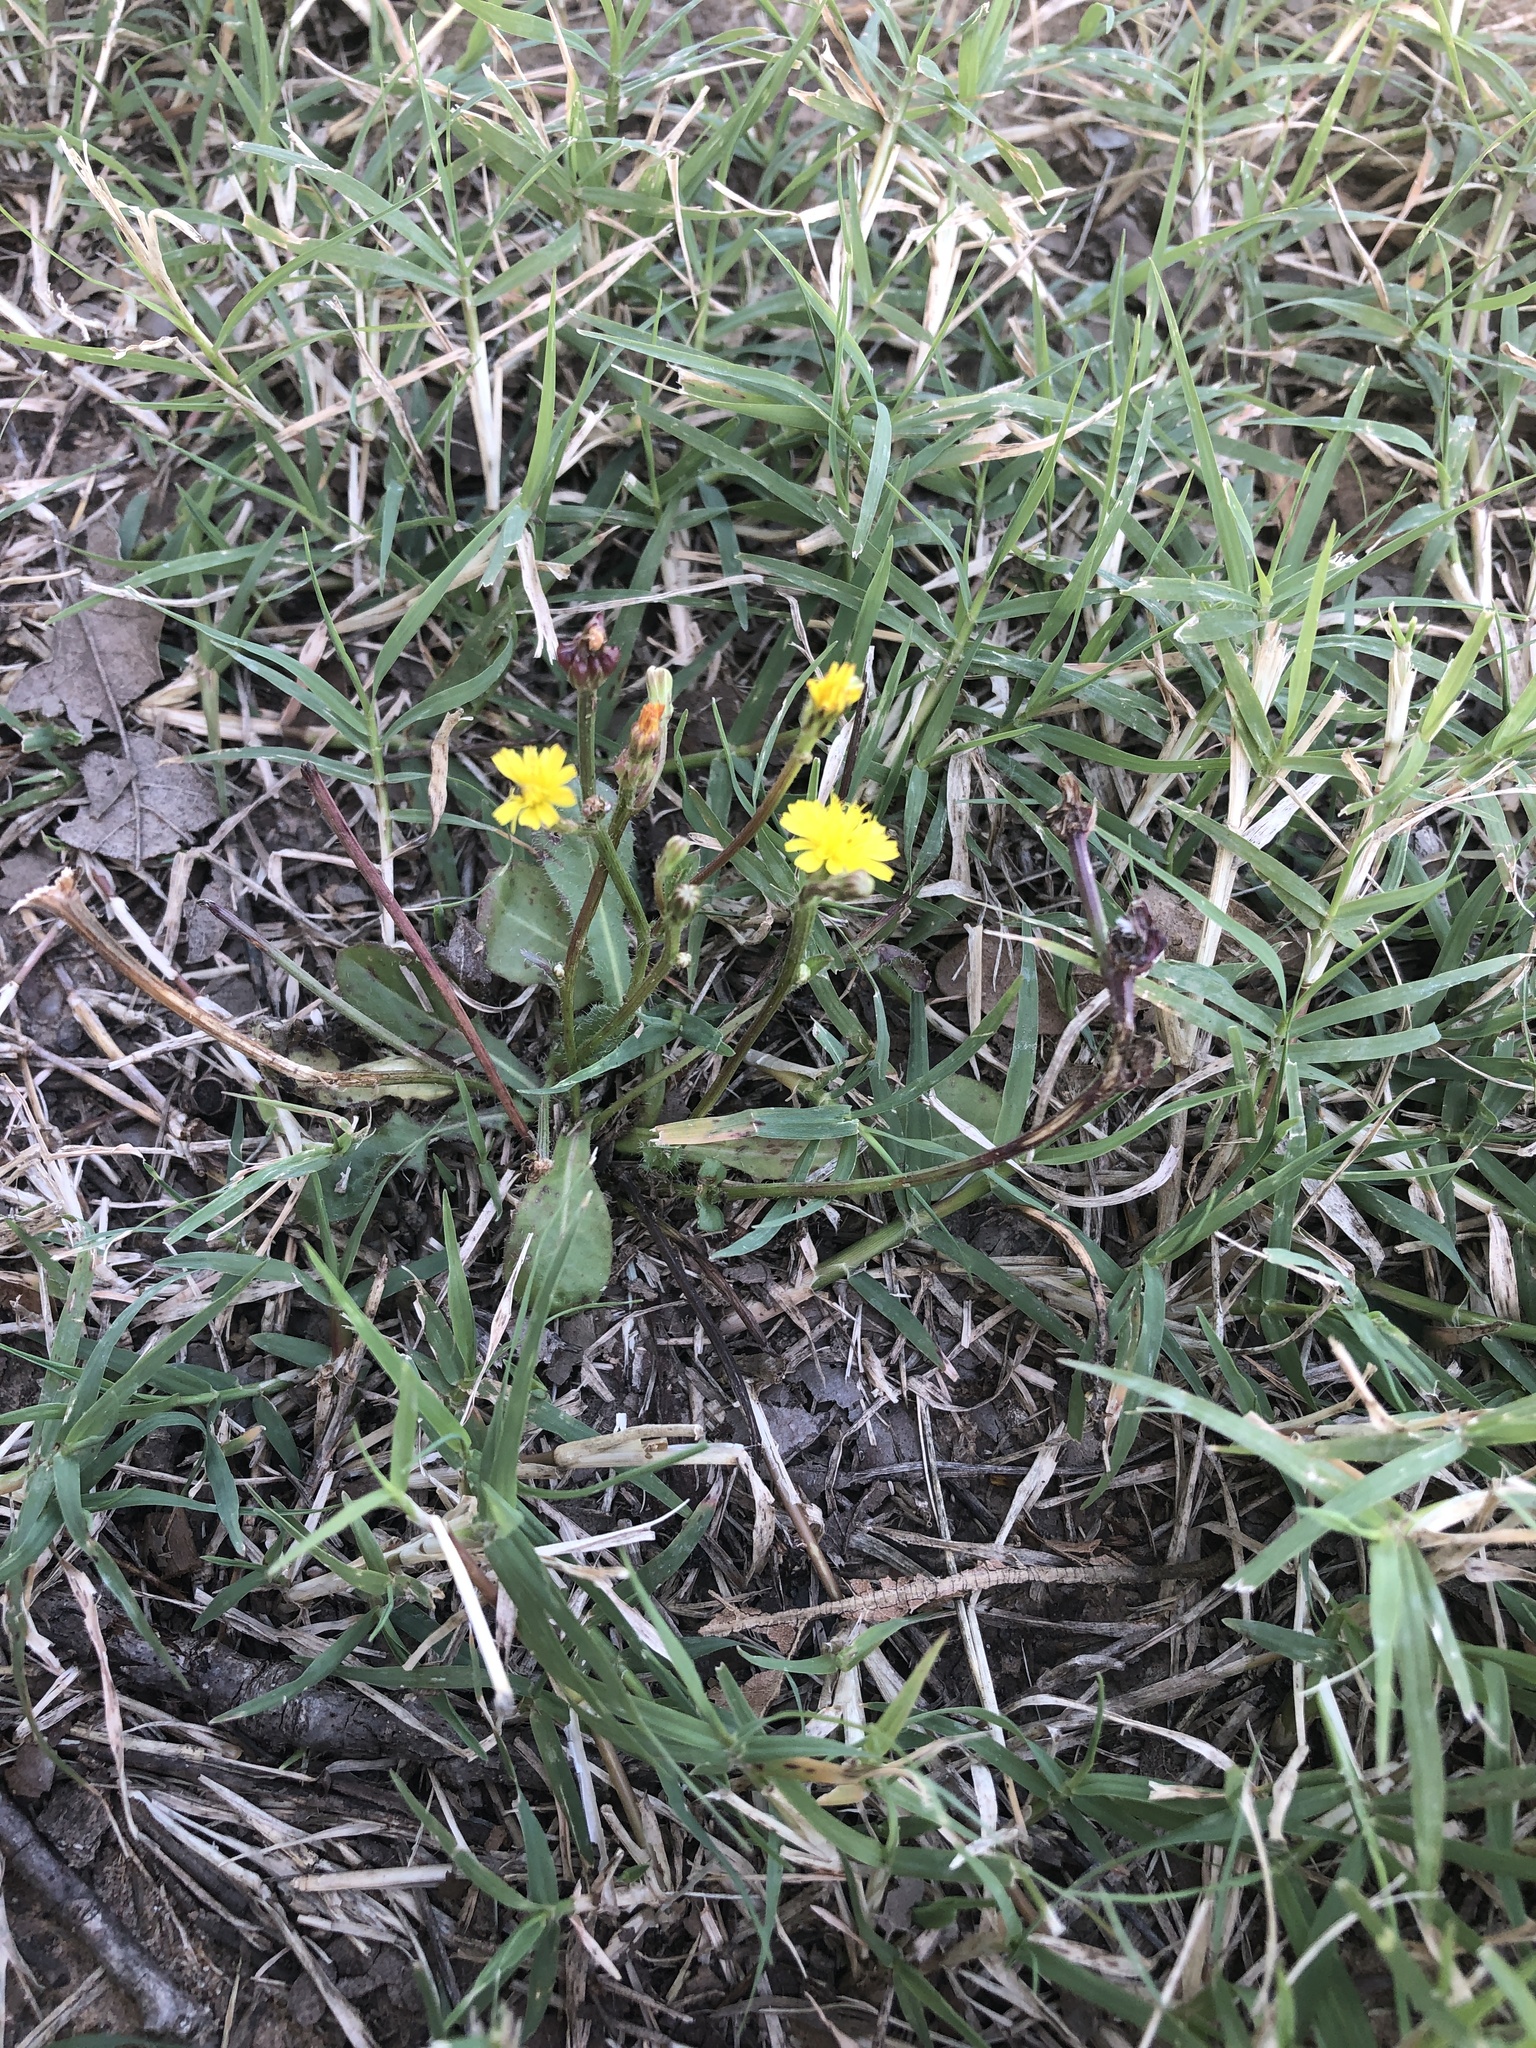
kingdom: Plantae
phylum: Tracheophyta
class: Magnoliopsida
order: Asterales
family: Asteraceae
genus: Crepis
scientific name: Crepis zacintha
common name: Striped hawksbeard
